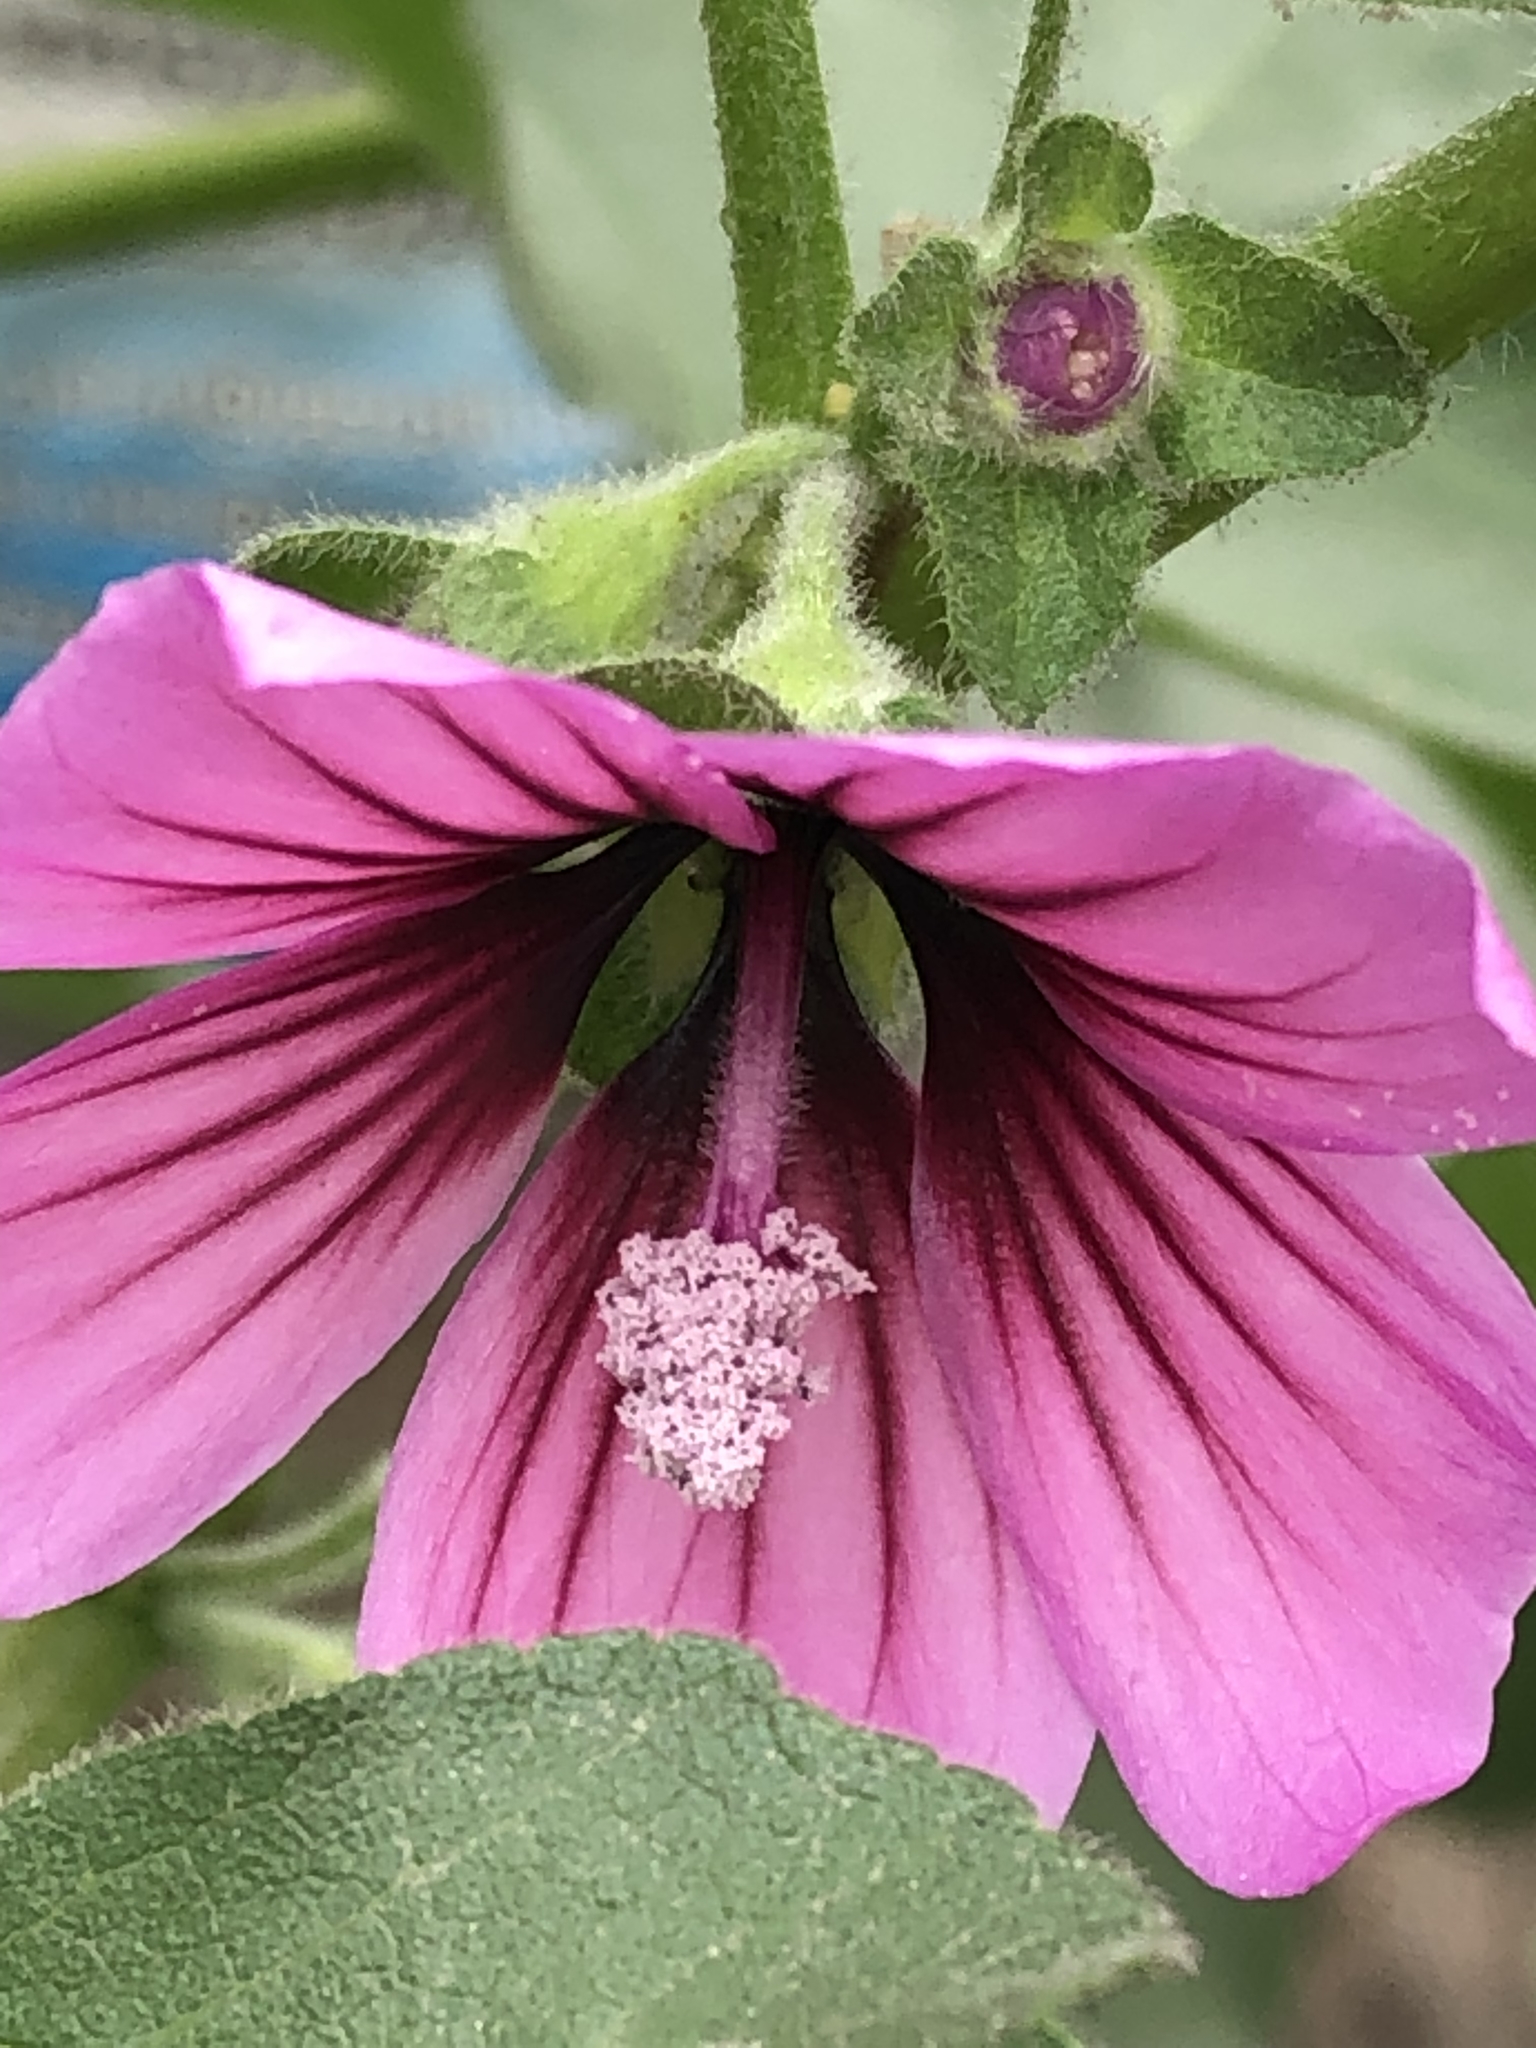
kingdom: Plantae
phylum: Tracheophyta
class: Magnoliopsida
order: Malvales
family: Malvaceae
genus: Malva
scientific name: Malva arborea
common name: Tree mallow
